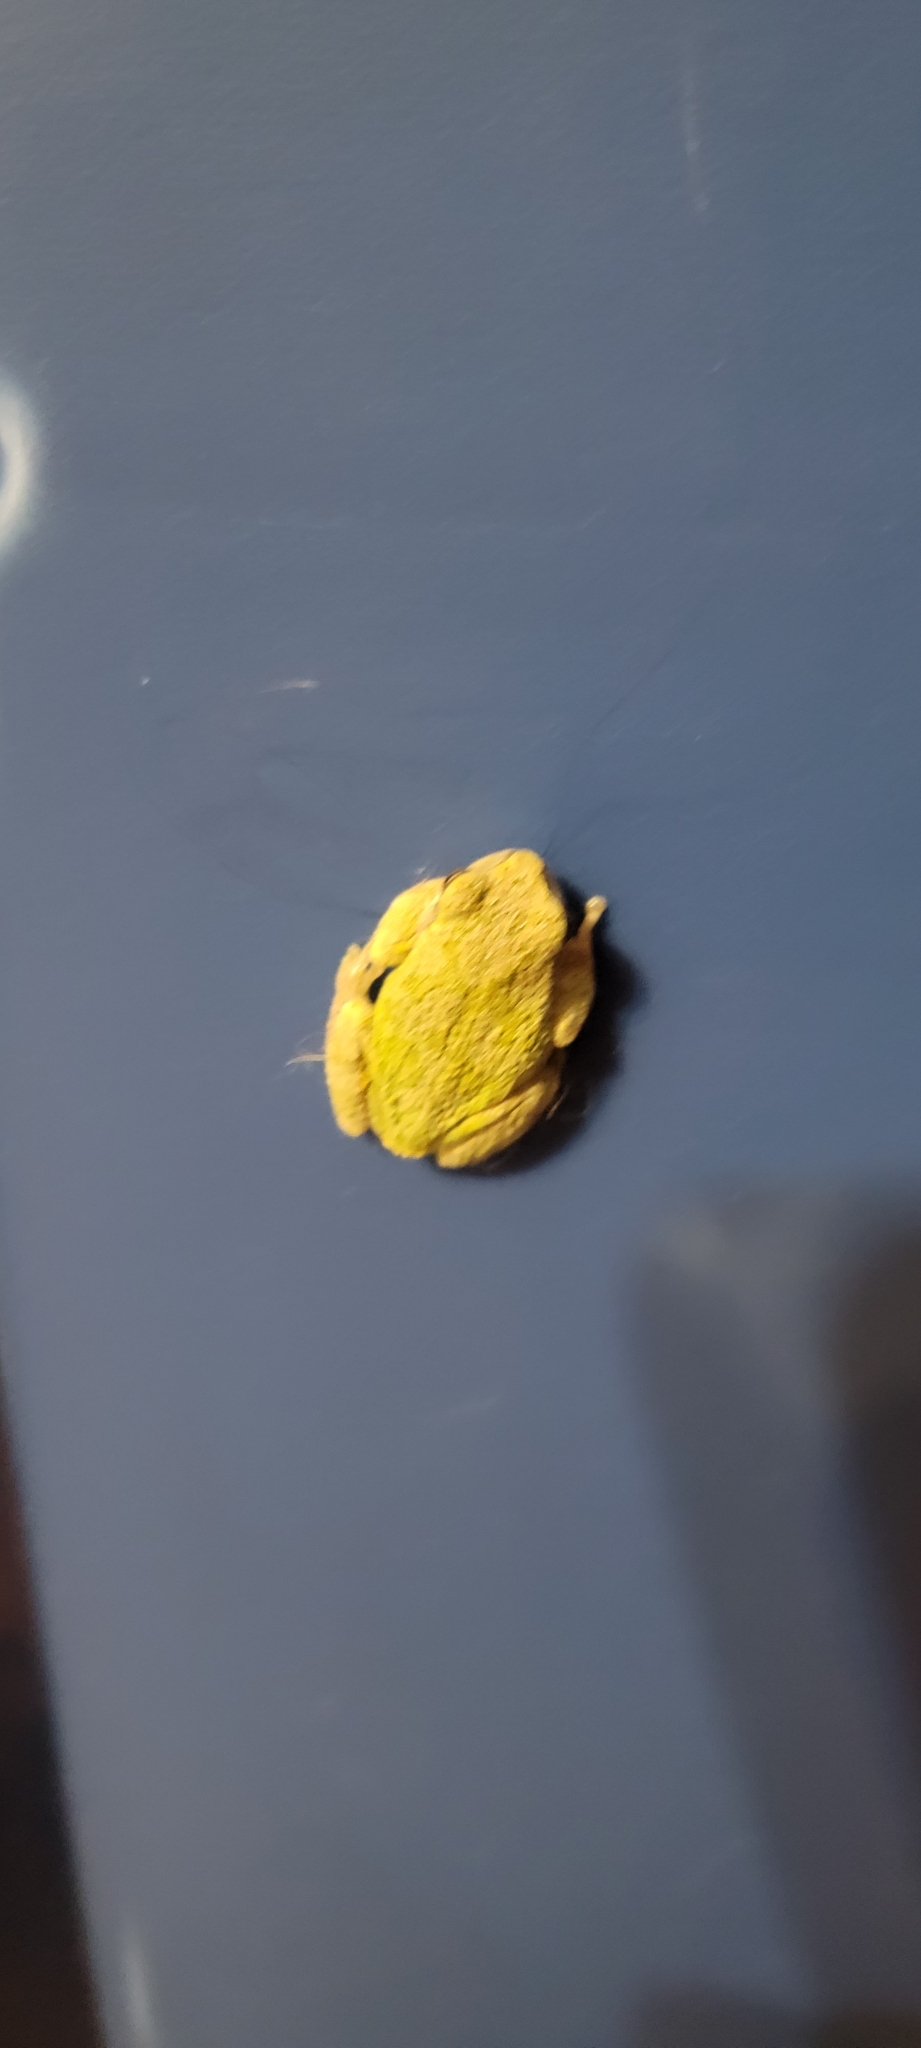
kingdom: Animalia
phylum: Chordata
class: Amphibia
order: Anura
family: Hylidae
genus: Hyla
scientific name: Hyla
